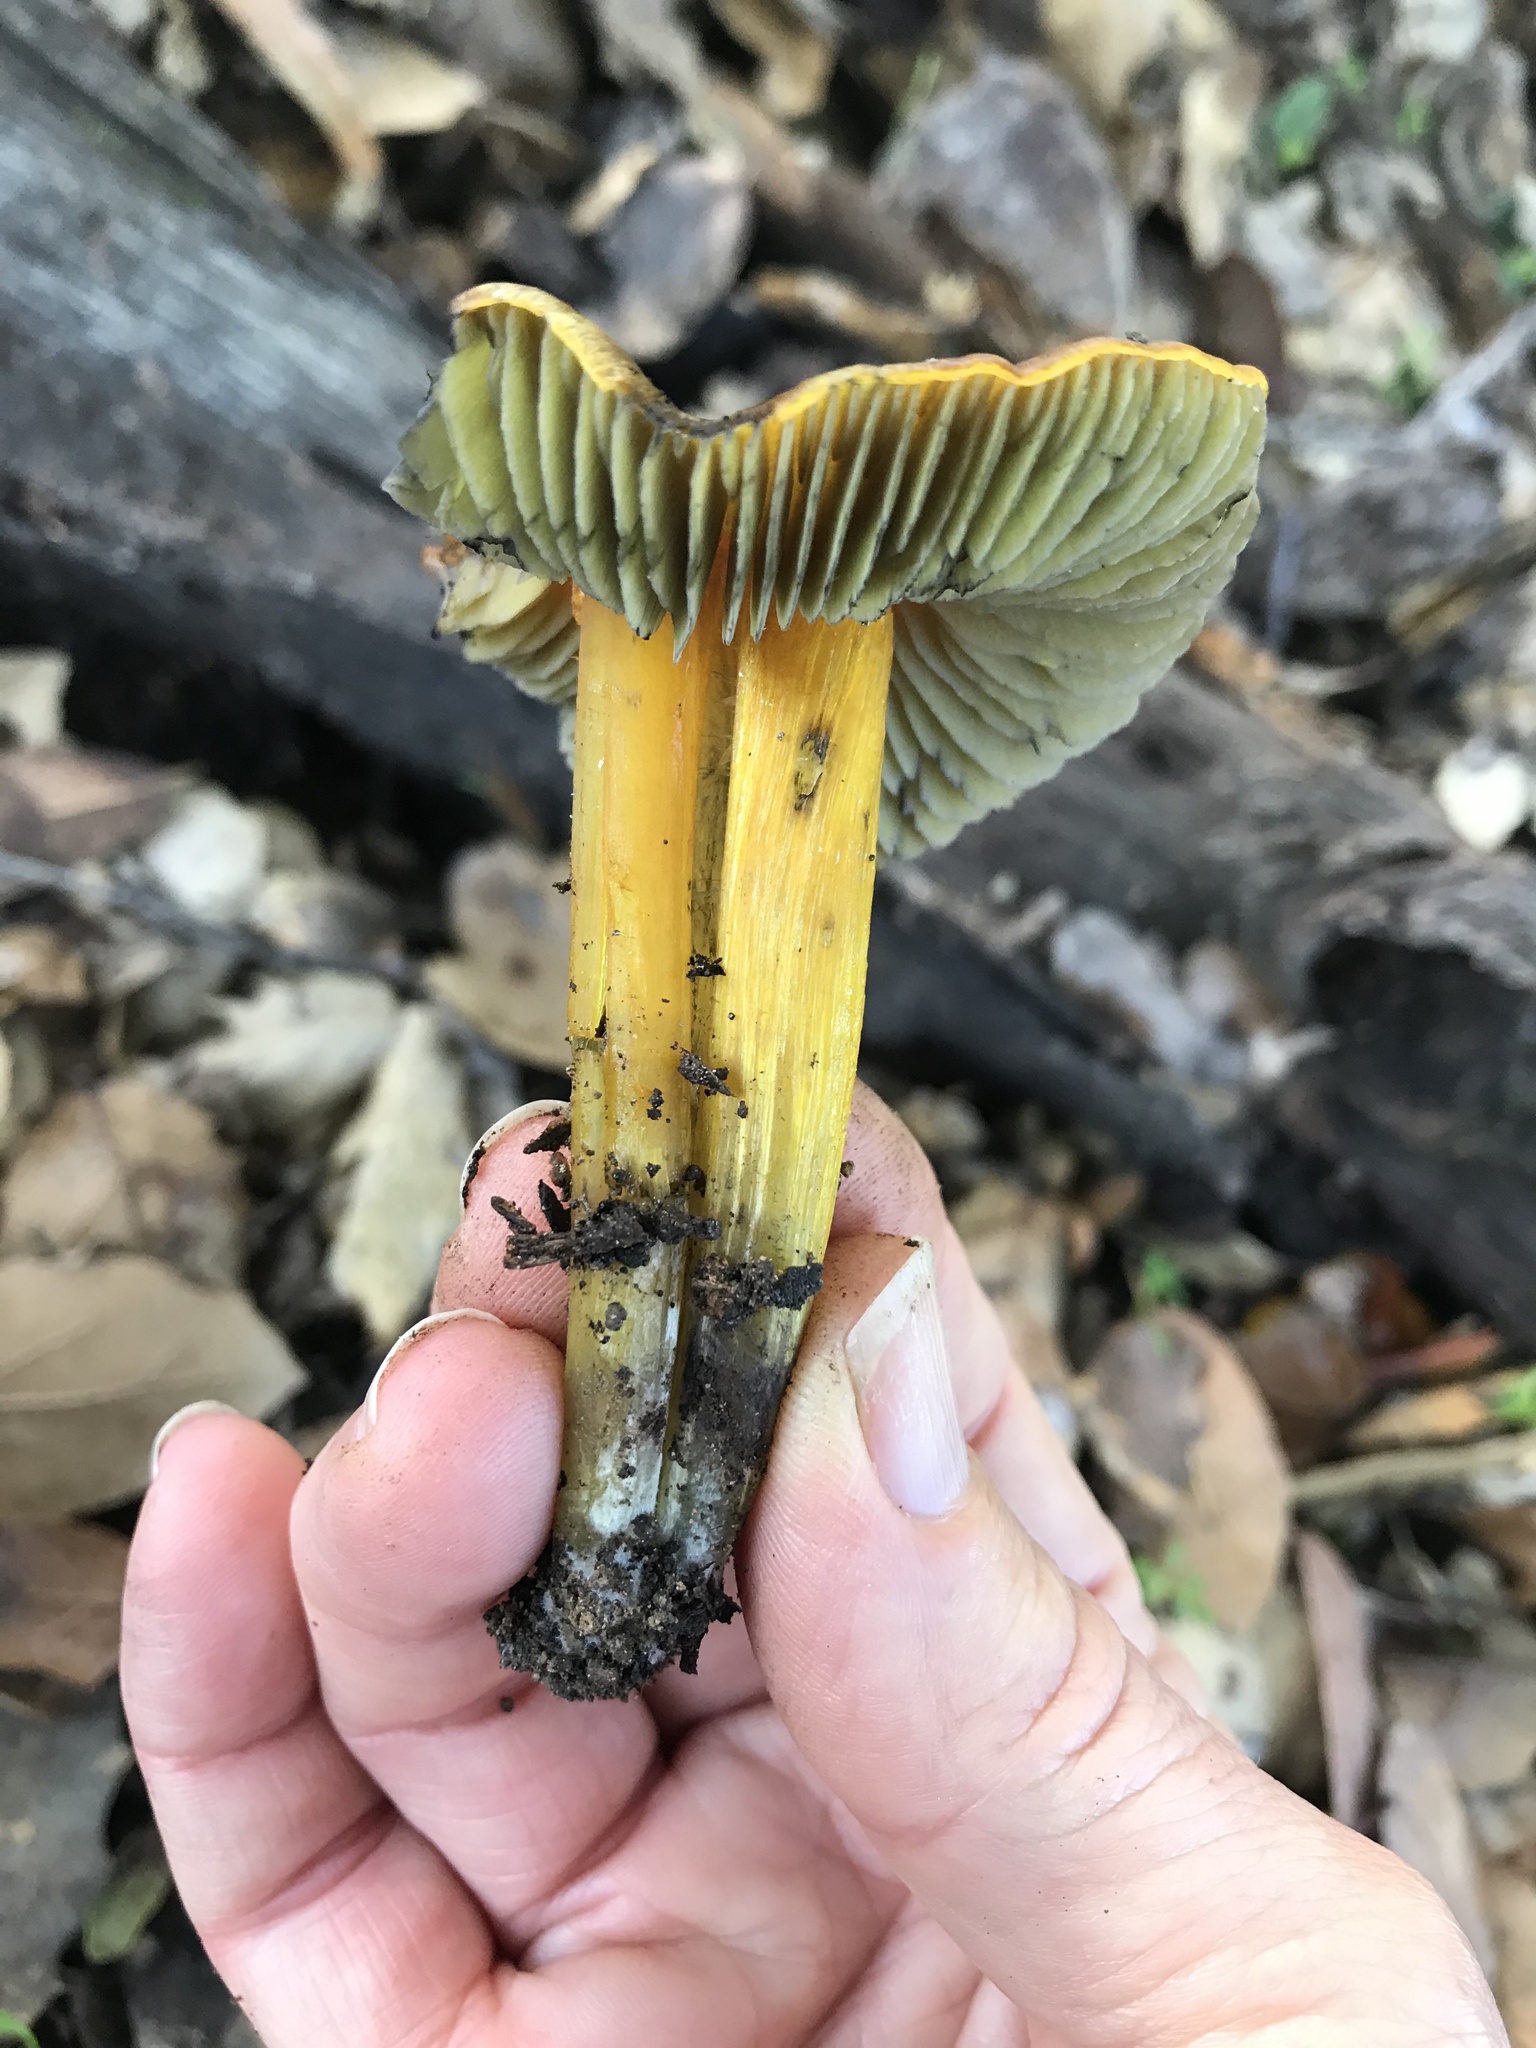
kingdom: Fungi
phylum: Basidiomycota
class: Agaricomycetes
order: Agaricales
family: Hygrophoraceae
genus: Hygrocybe
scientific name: Hygrocybe singeri
